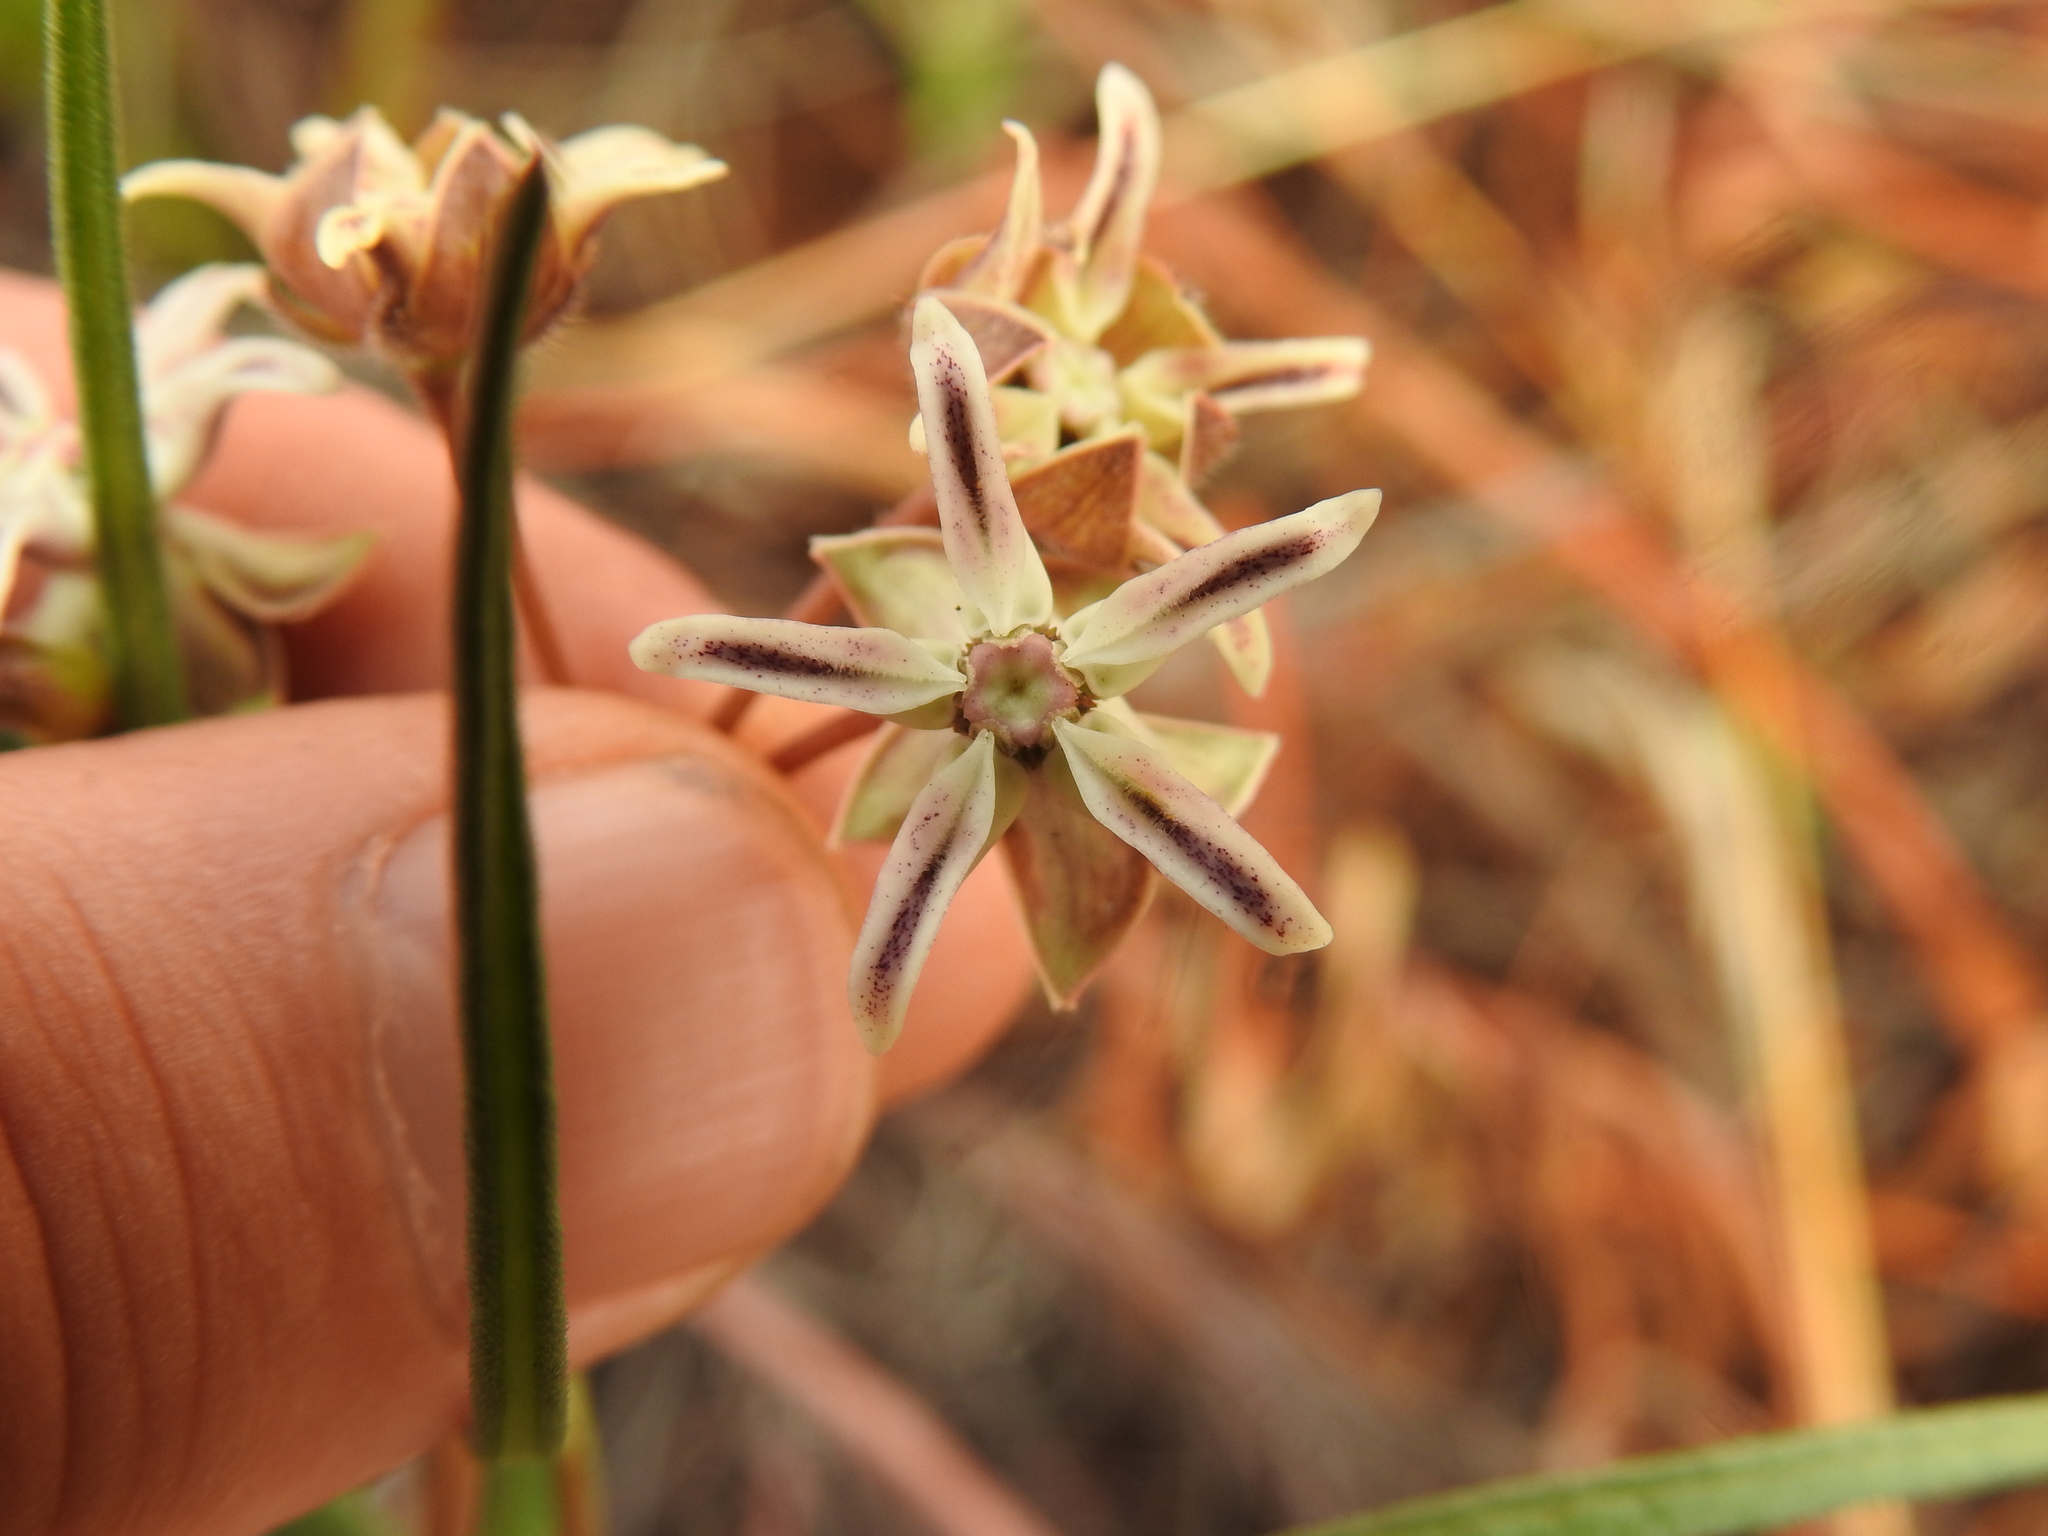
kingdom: Plantae
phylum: Tracheophyta
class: Magnoliopsida
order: Gentianales
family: Apocynaceae
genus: Asclepias
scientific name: Asclepias stellifera
